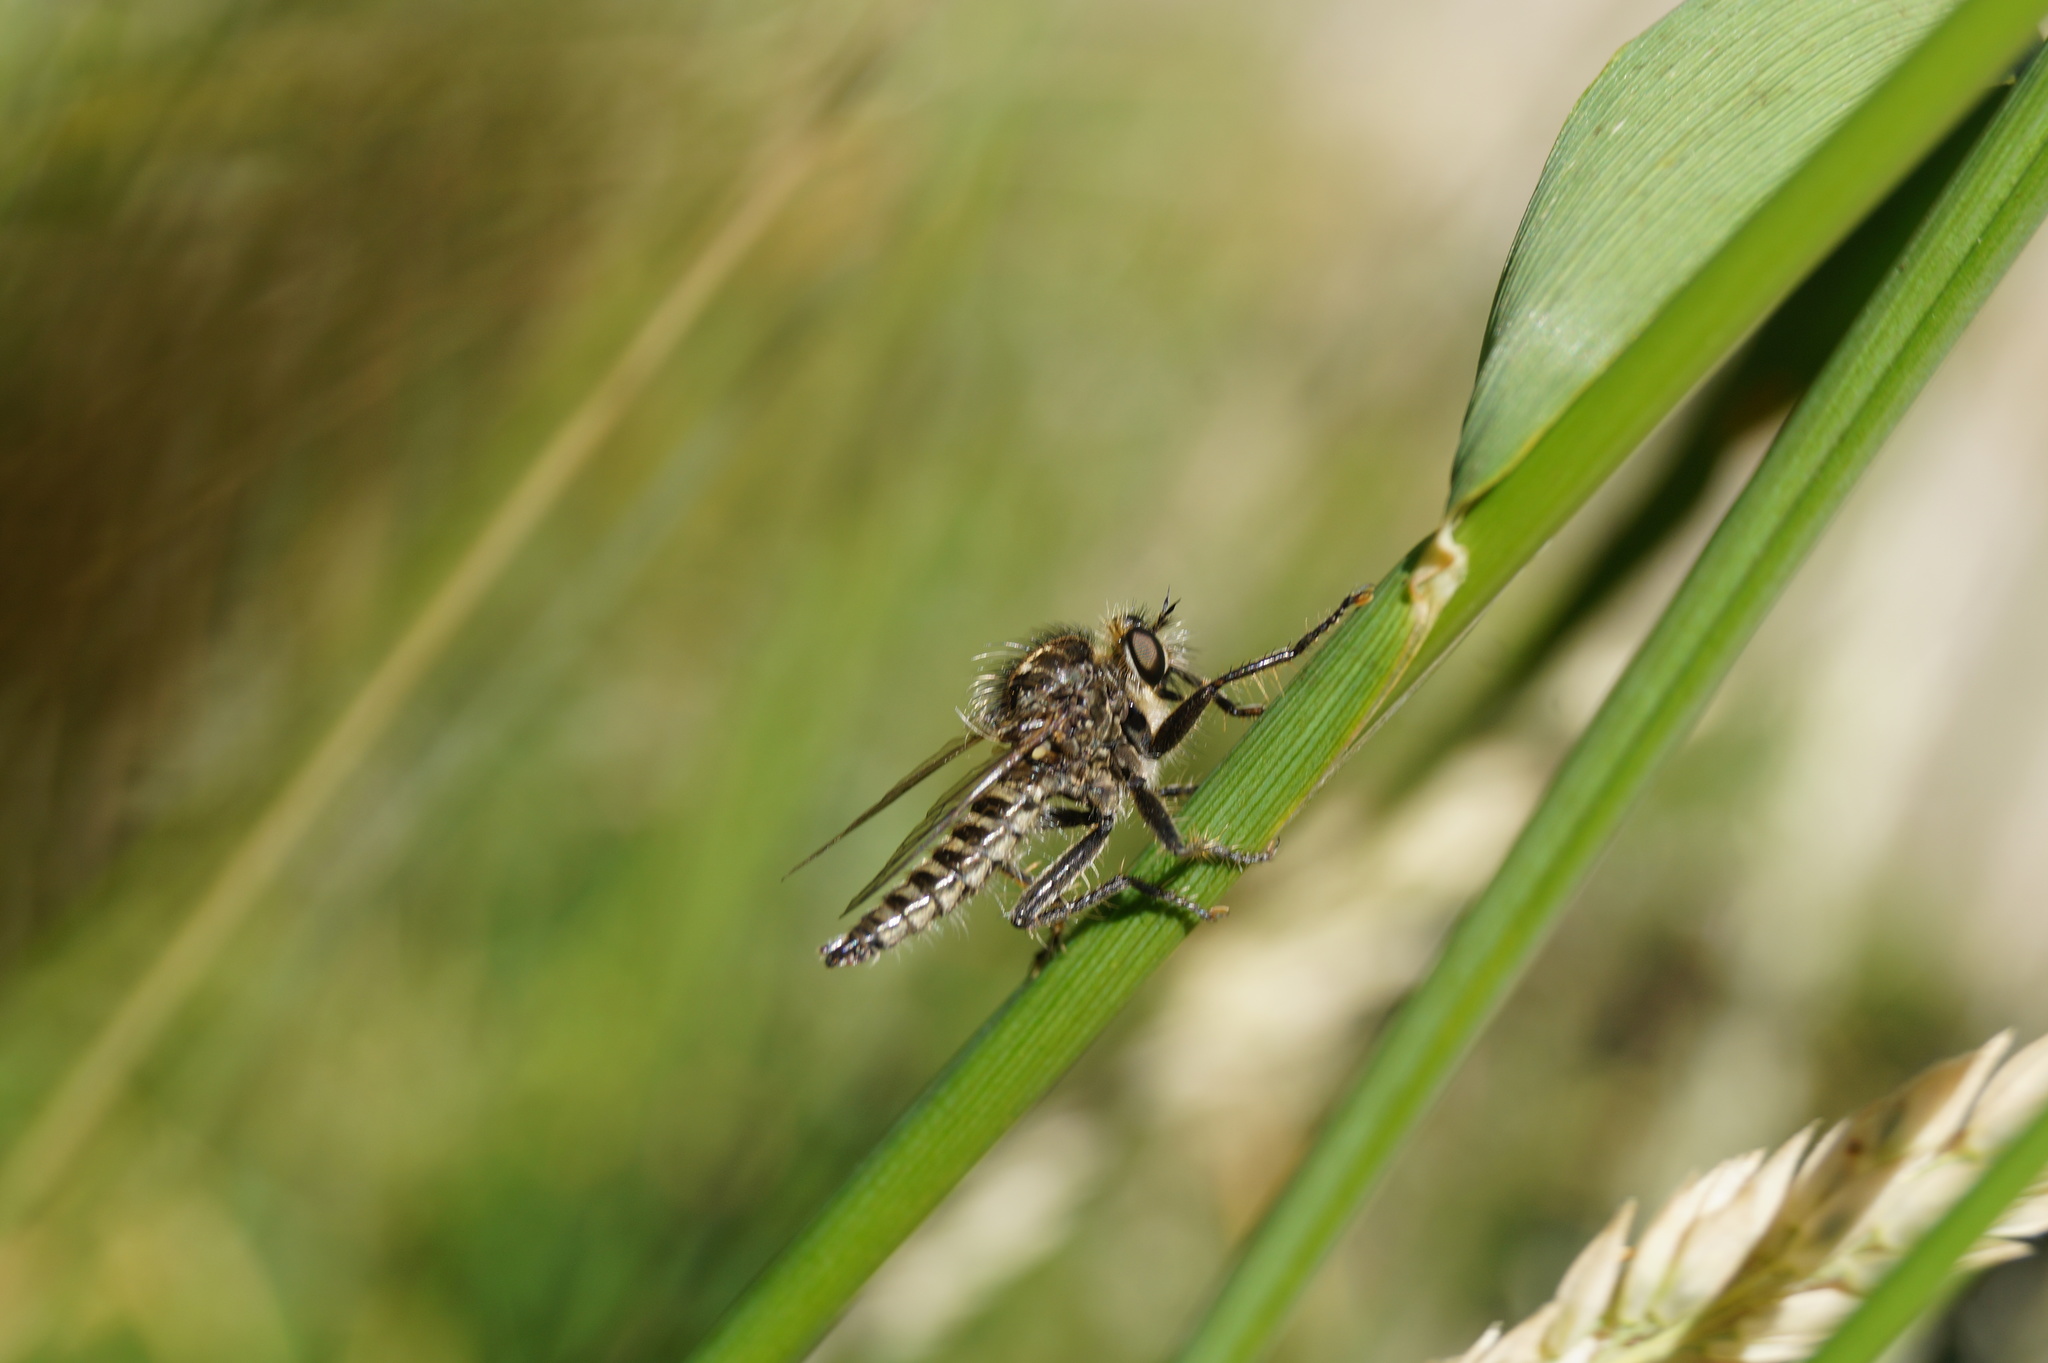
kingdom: Animalia
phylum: Arthropoda
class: Insecta
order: Diptera
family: Asilidae
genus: Dysmachus
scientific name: Dysmachus trigonus
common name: Fan-bristled robberfly
